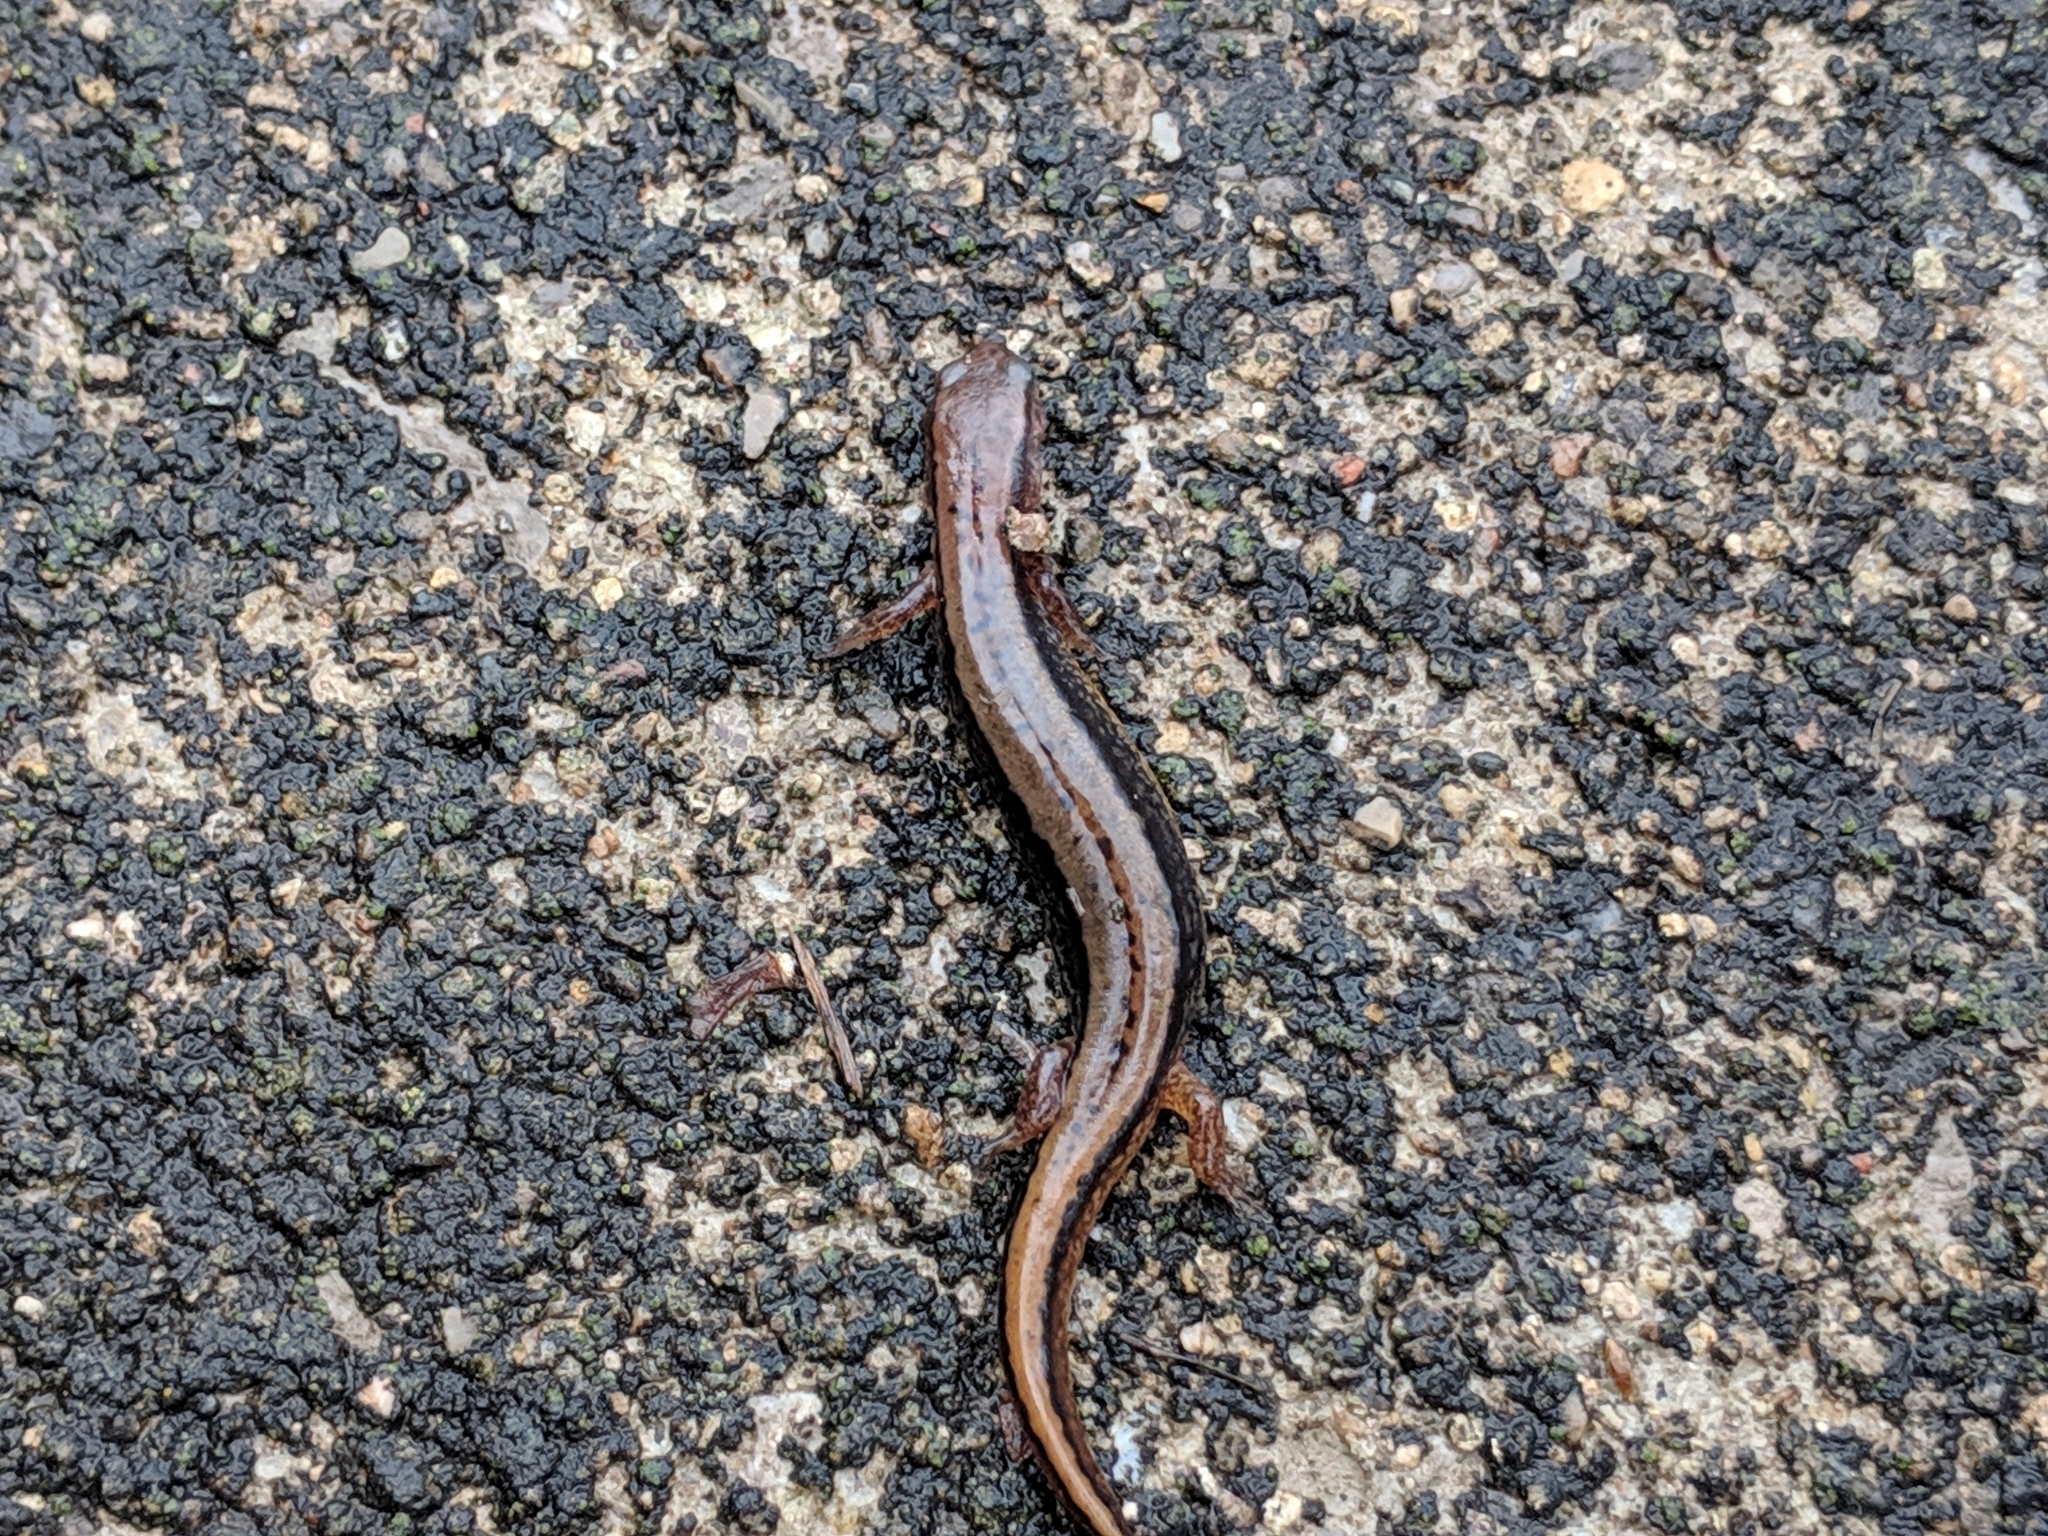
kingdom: Animalia
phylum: Chordata
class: Amphibia
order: Caudata
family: Plethodontidae
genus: Eurycea
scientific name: Eurycea cirrigera
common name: Southern two-lined salamander
